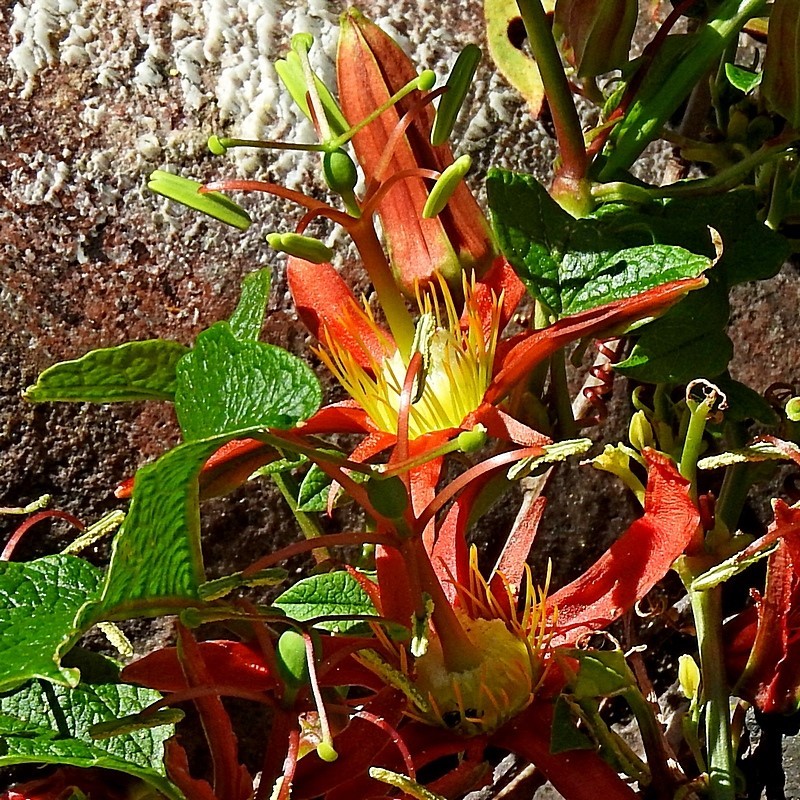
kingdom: Plantae
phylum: Tracheophyta
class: Magnoliopsida
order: Malpighiales
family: Passifloraceae
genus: Passiflora
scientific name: Passiflora cinnabarina
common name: Red passionflower
